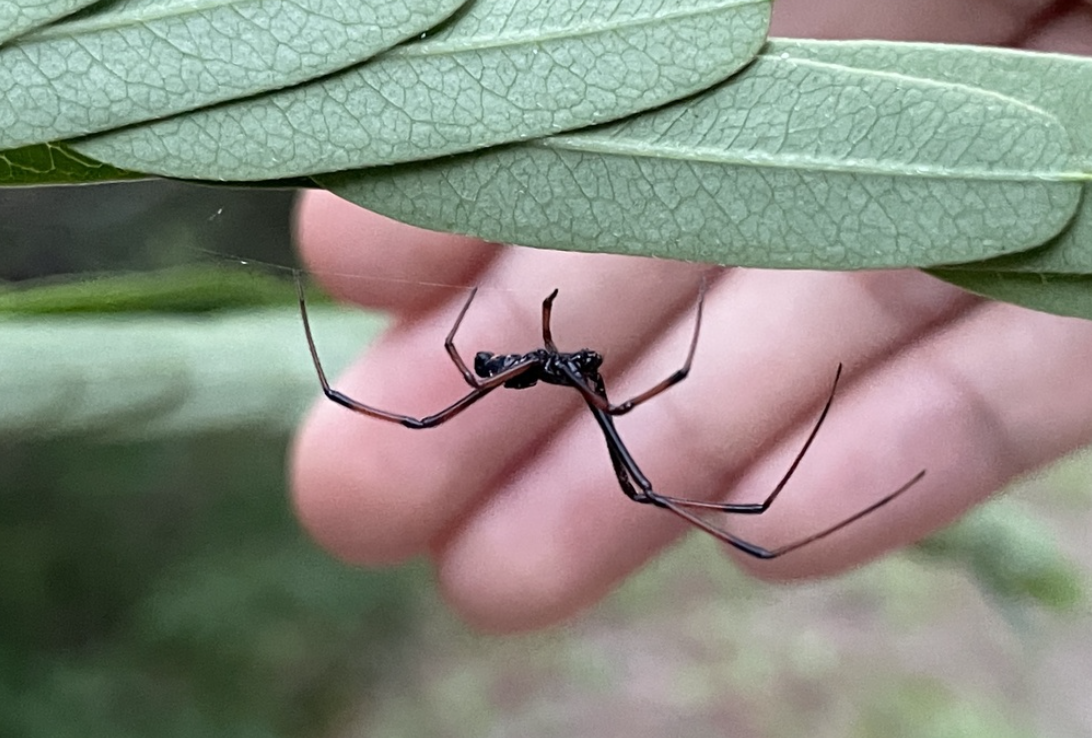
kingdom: Animalia
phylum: Arthropoda
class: Arachnida
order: Araneae
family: Theridiidae
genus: Latrodectus
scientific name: Latrodectus variolus
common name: Northern black widow
